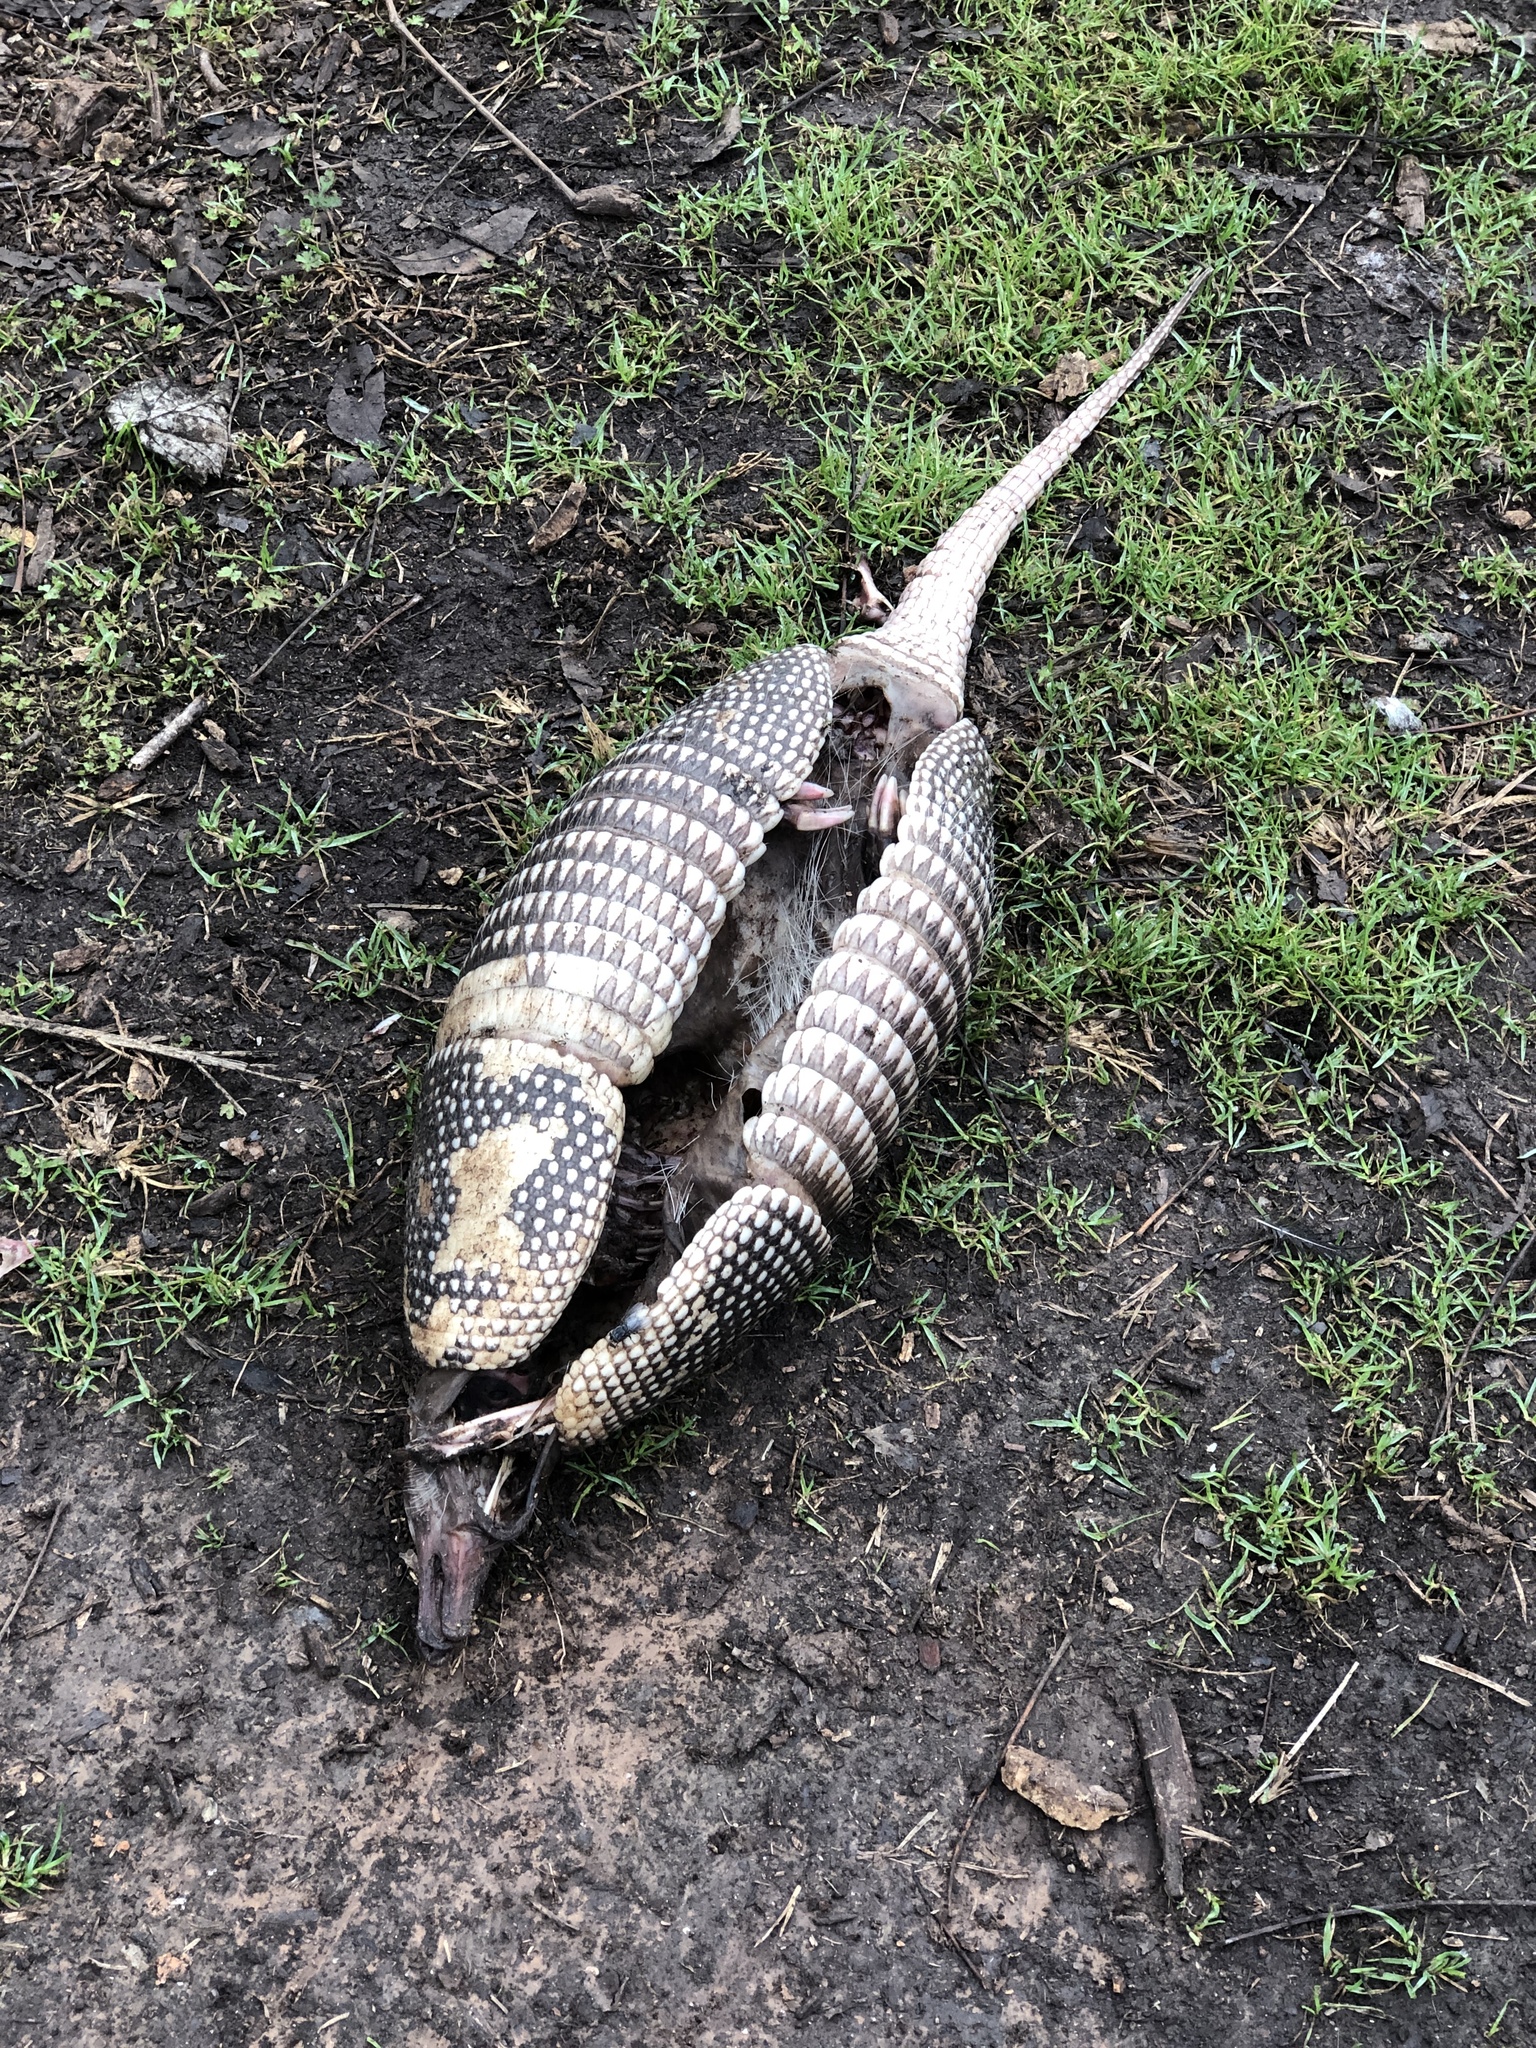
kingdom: Animalia
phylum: Chordata
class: Mammalia
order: Cingulata
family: Dasypodidae
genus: Dasypus
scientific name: Dasypus novemcinctus
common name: Nine-banded armadillo
